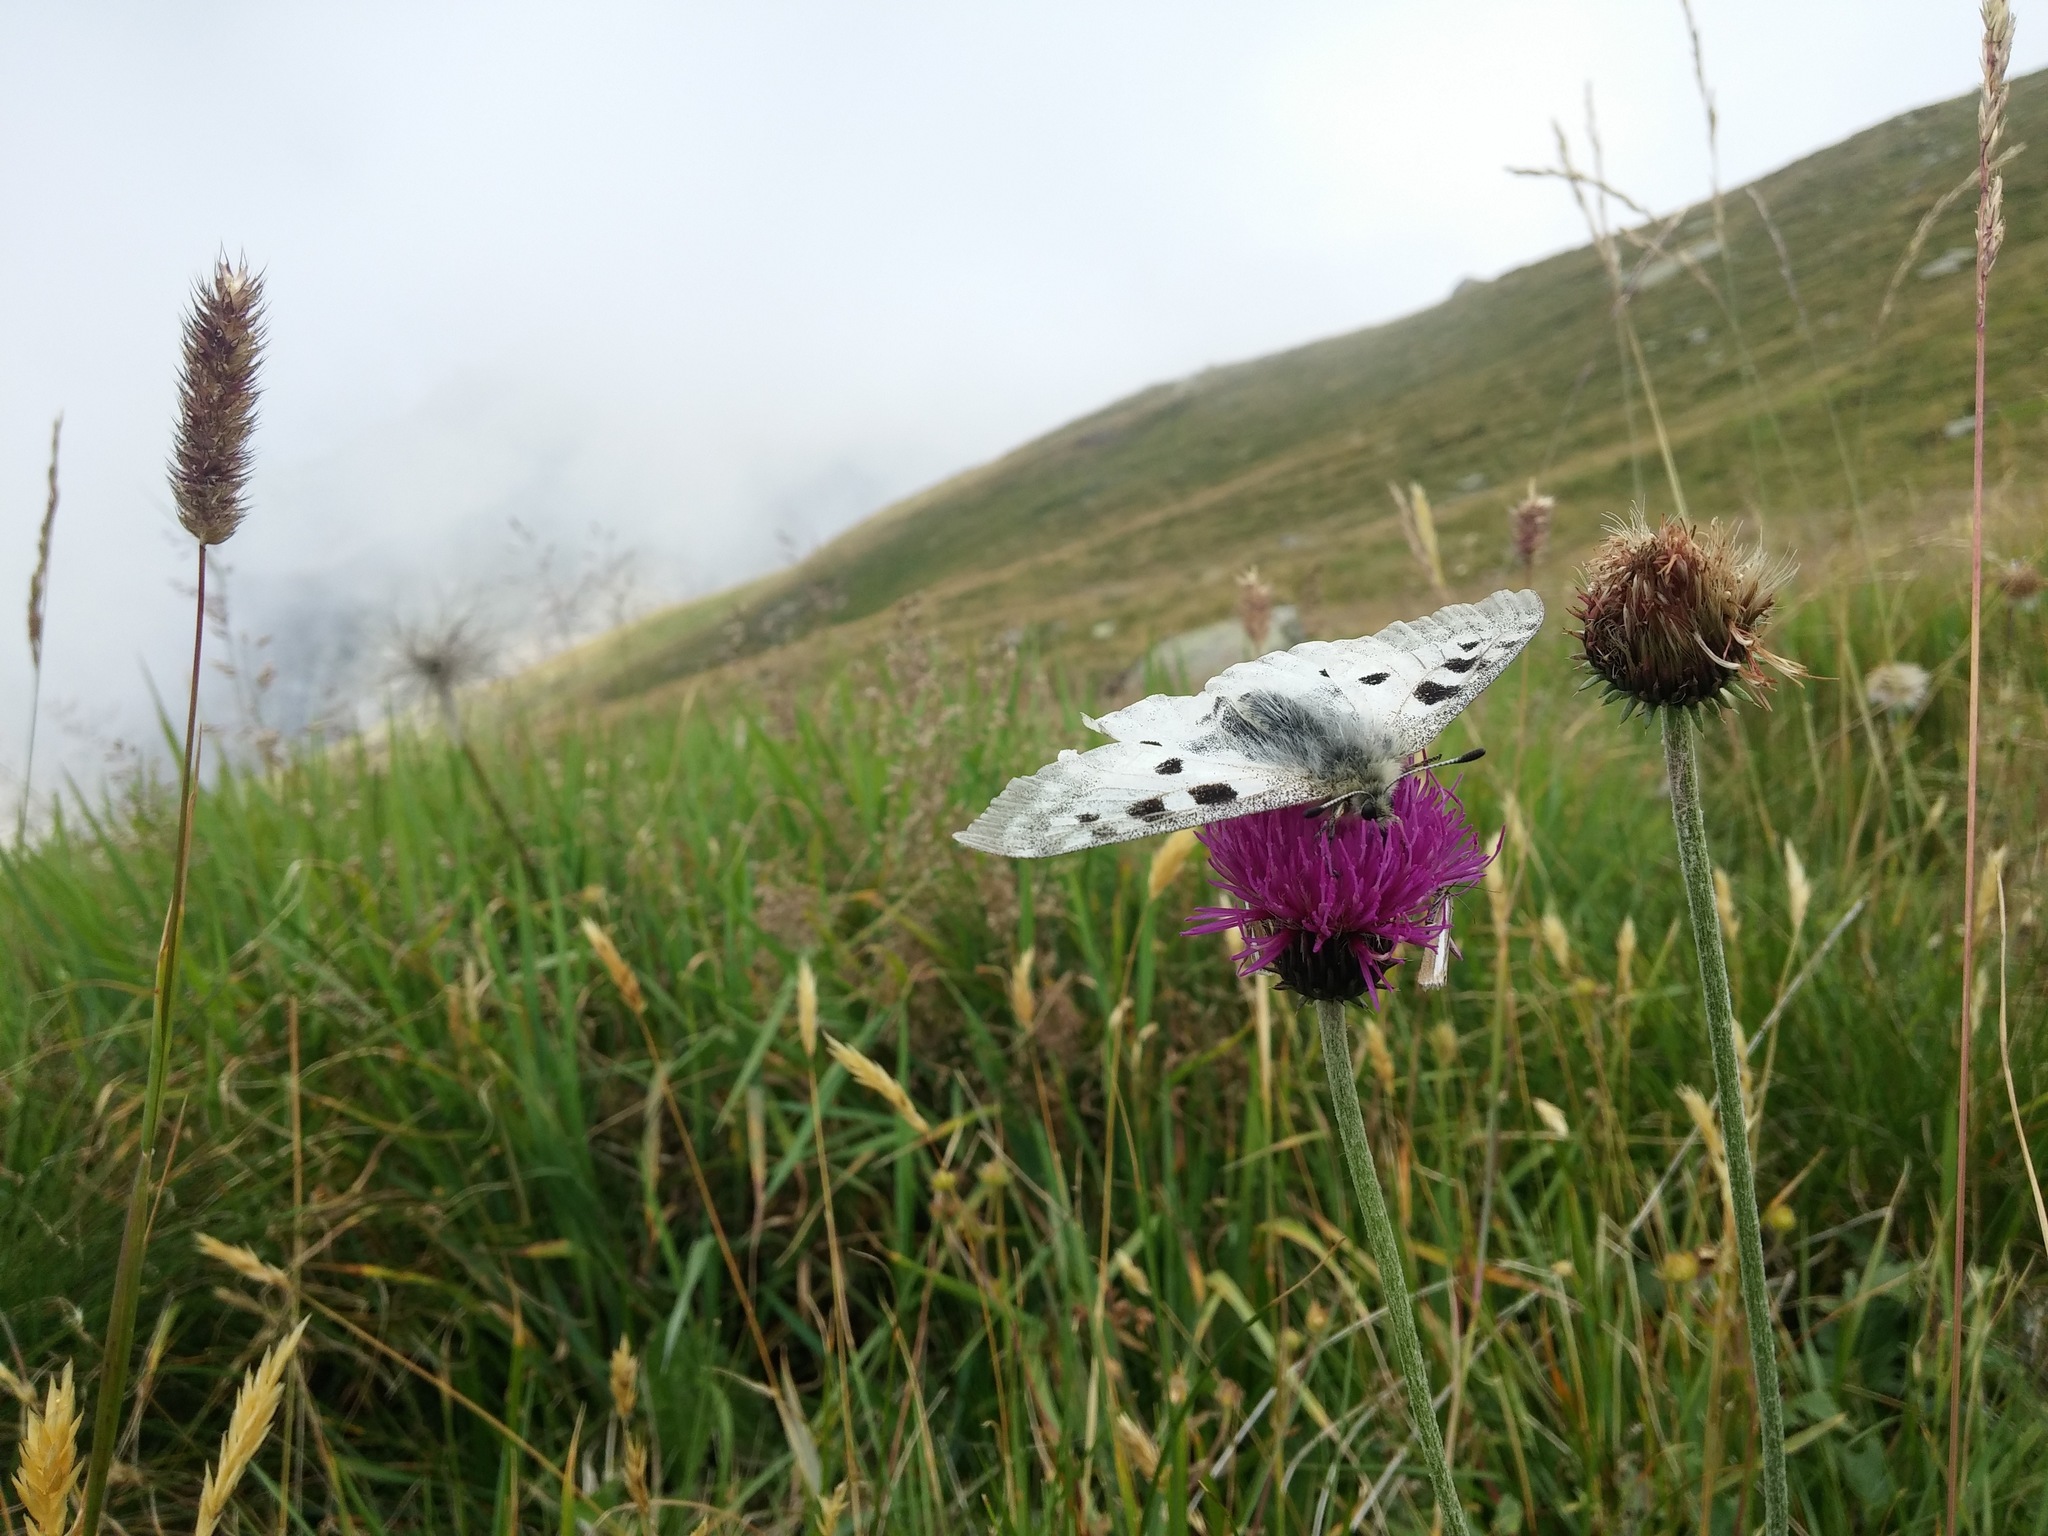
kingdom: Animalia
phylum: Arthropoda
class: Insecta
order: Lepidoptera
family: Papilionidae
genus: Parnassius
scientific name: Parnassius apollo
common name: Apollo
